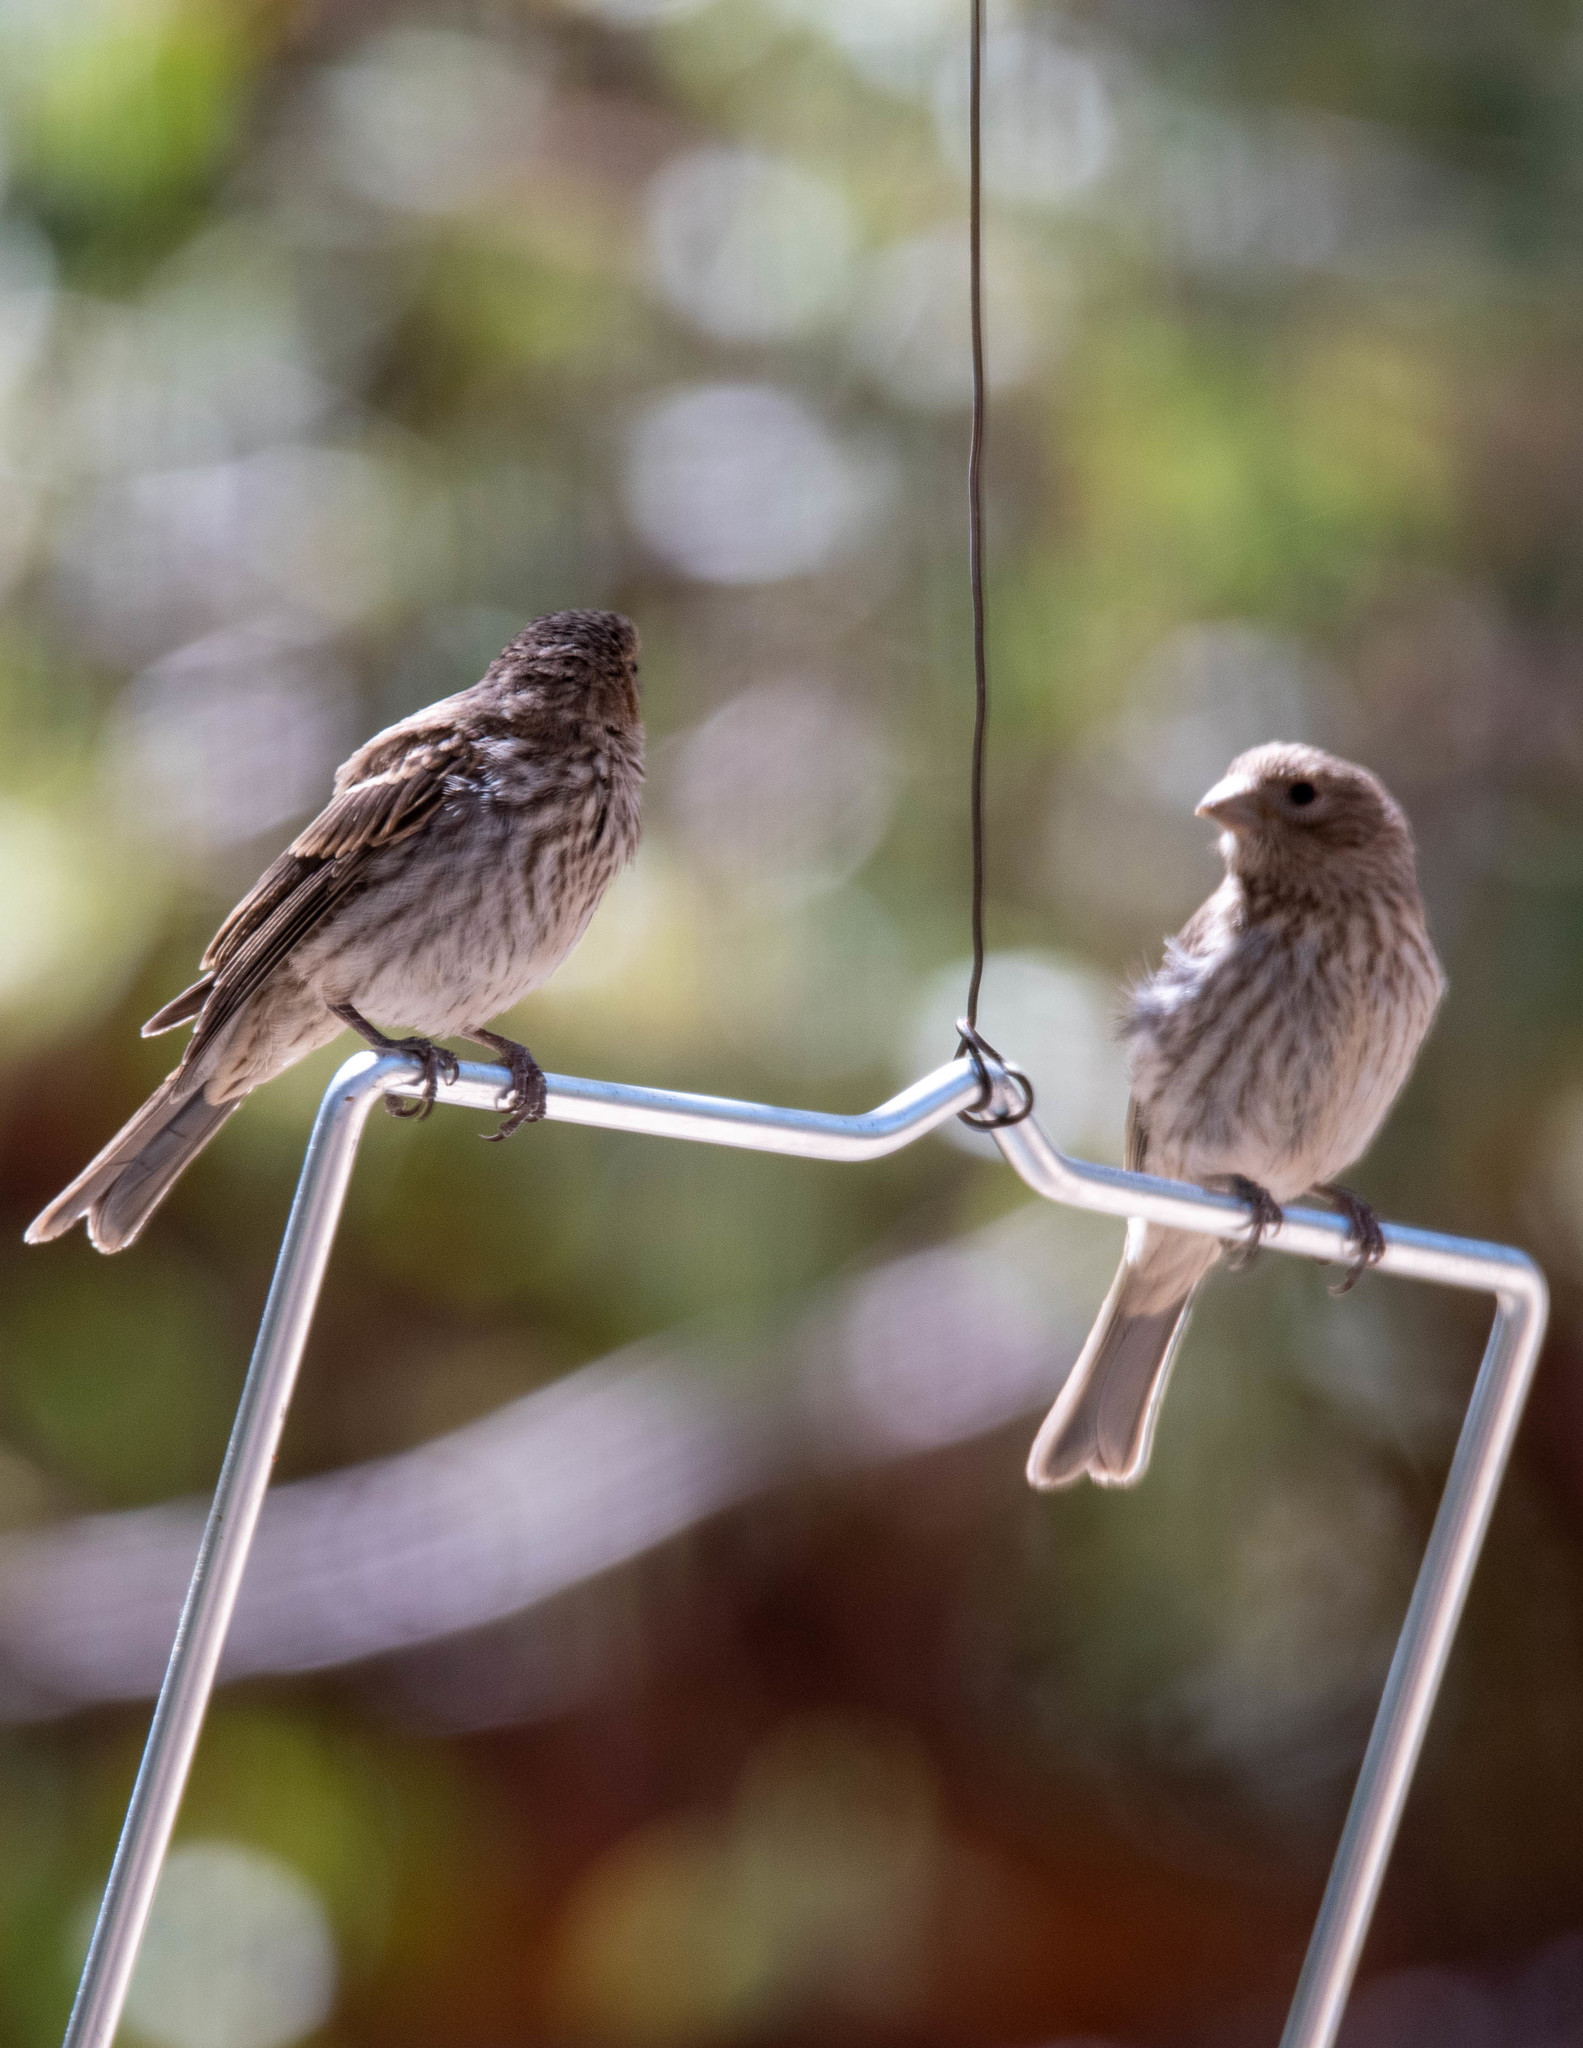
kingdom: Animalia
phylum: Chordata
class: Aves
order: Passeriformes
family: Fringillidae
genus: Haemorhous
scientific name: Haemorhous mexicanus
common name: House finch
